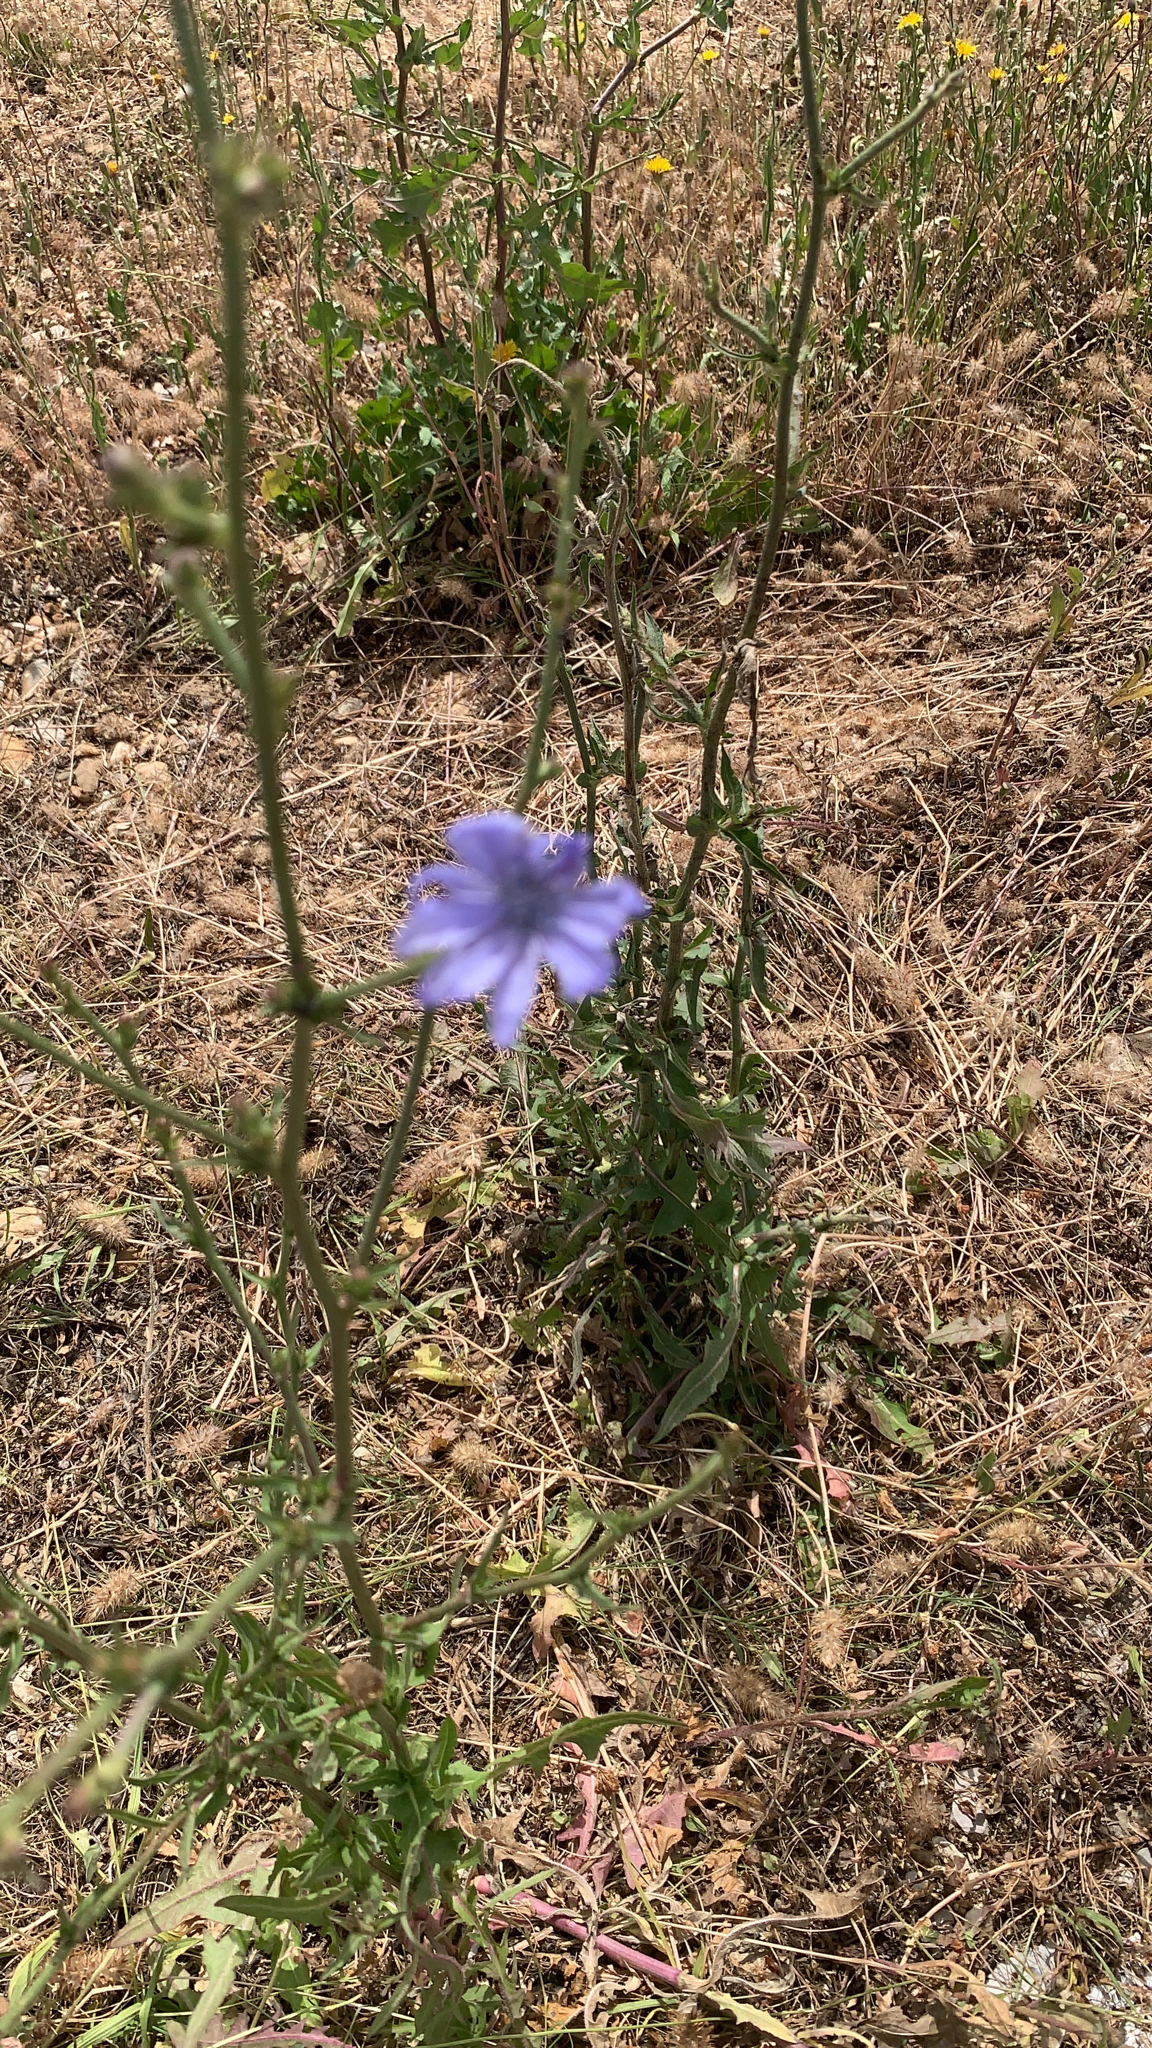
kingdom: Plantae
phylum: Tracheophyta
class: Magnoliopsida
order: Asterales
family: Asteraceae
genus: Cichorium
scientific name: Cichorium intybus
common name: Chicory
